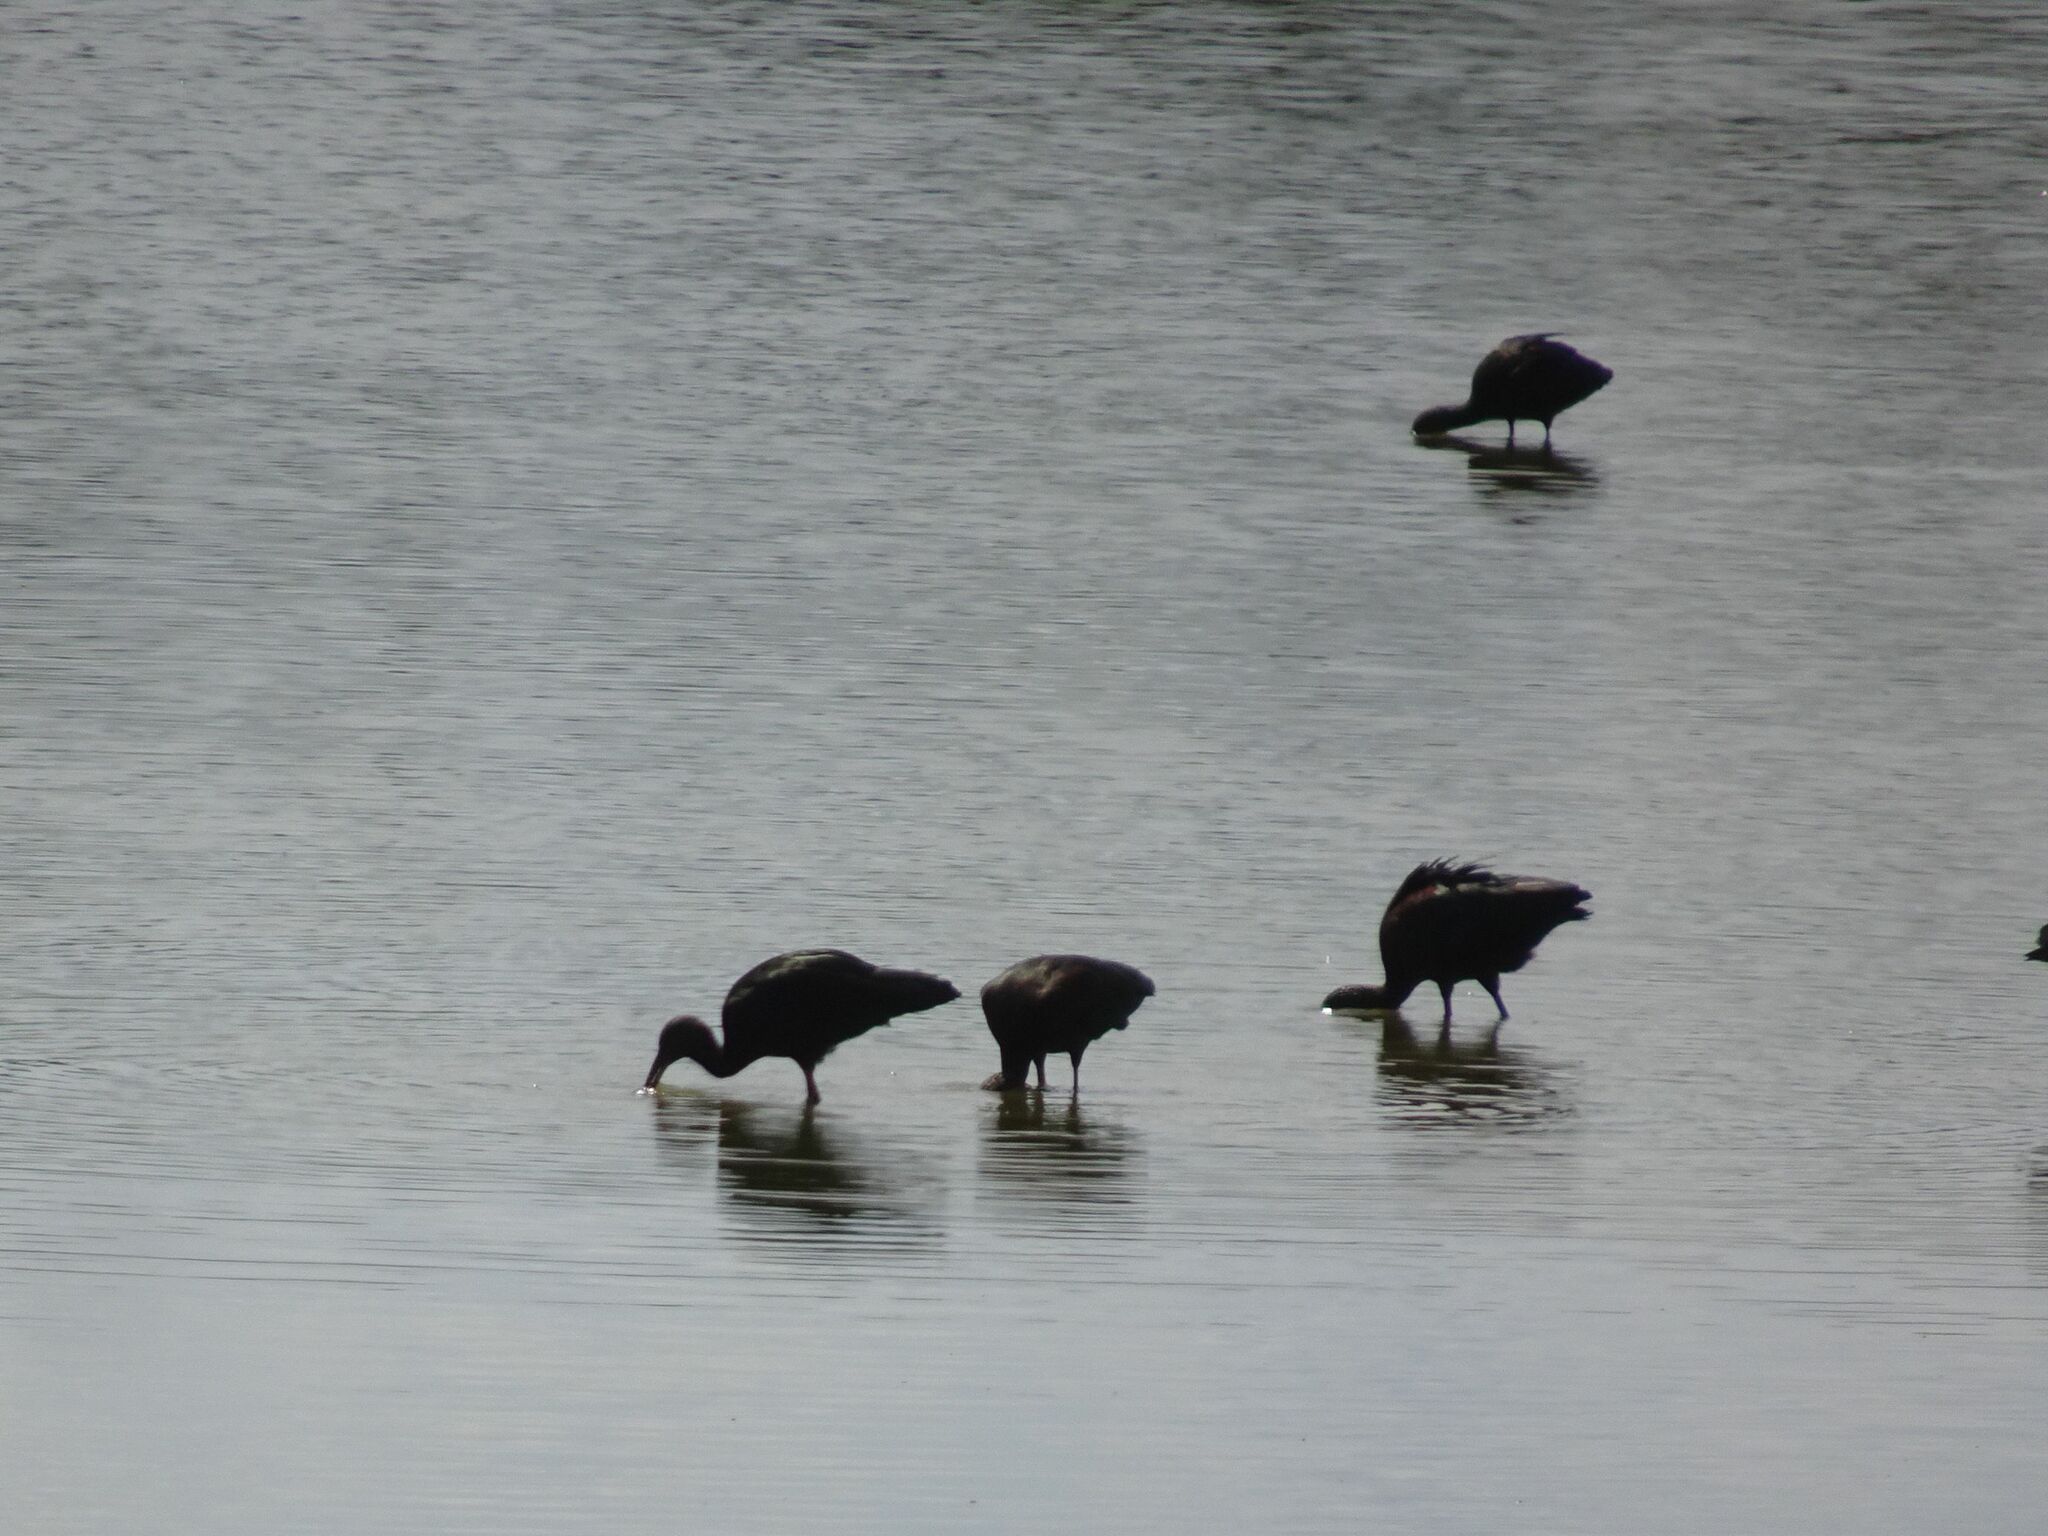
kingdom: Animalia
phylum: Chordata
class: Aves
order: Pelecaniformes
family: Threskiornithidae
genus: Plegadis
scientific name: Plegadis falcinellus
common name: Glossy ibis
